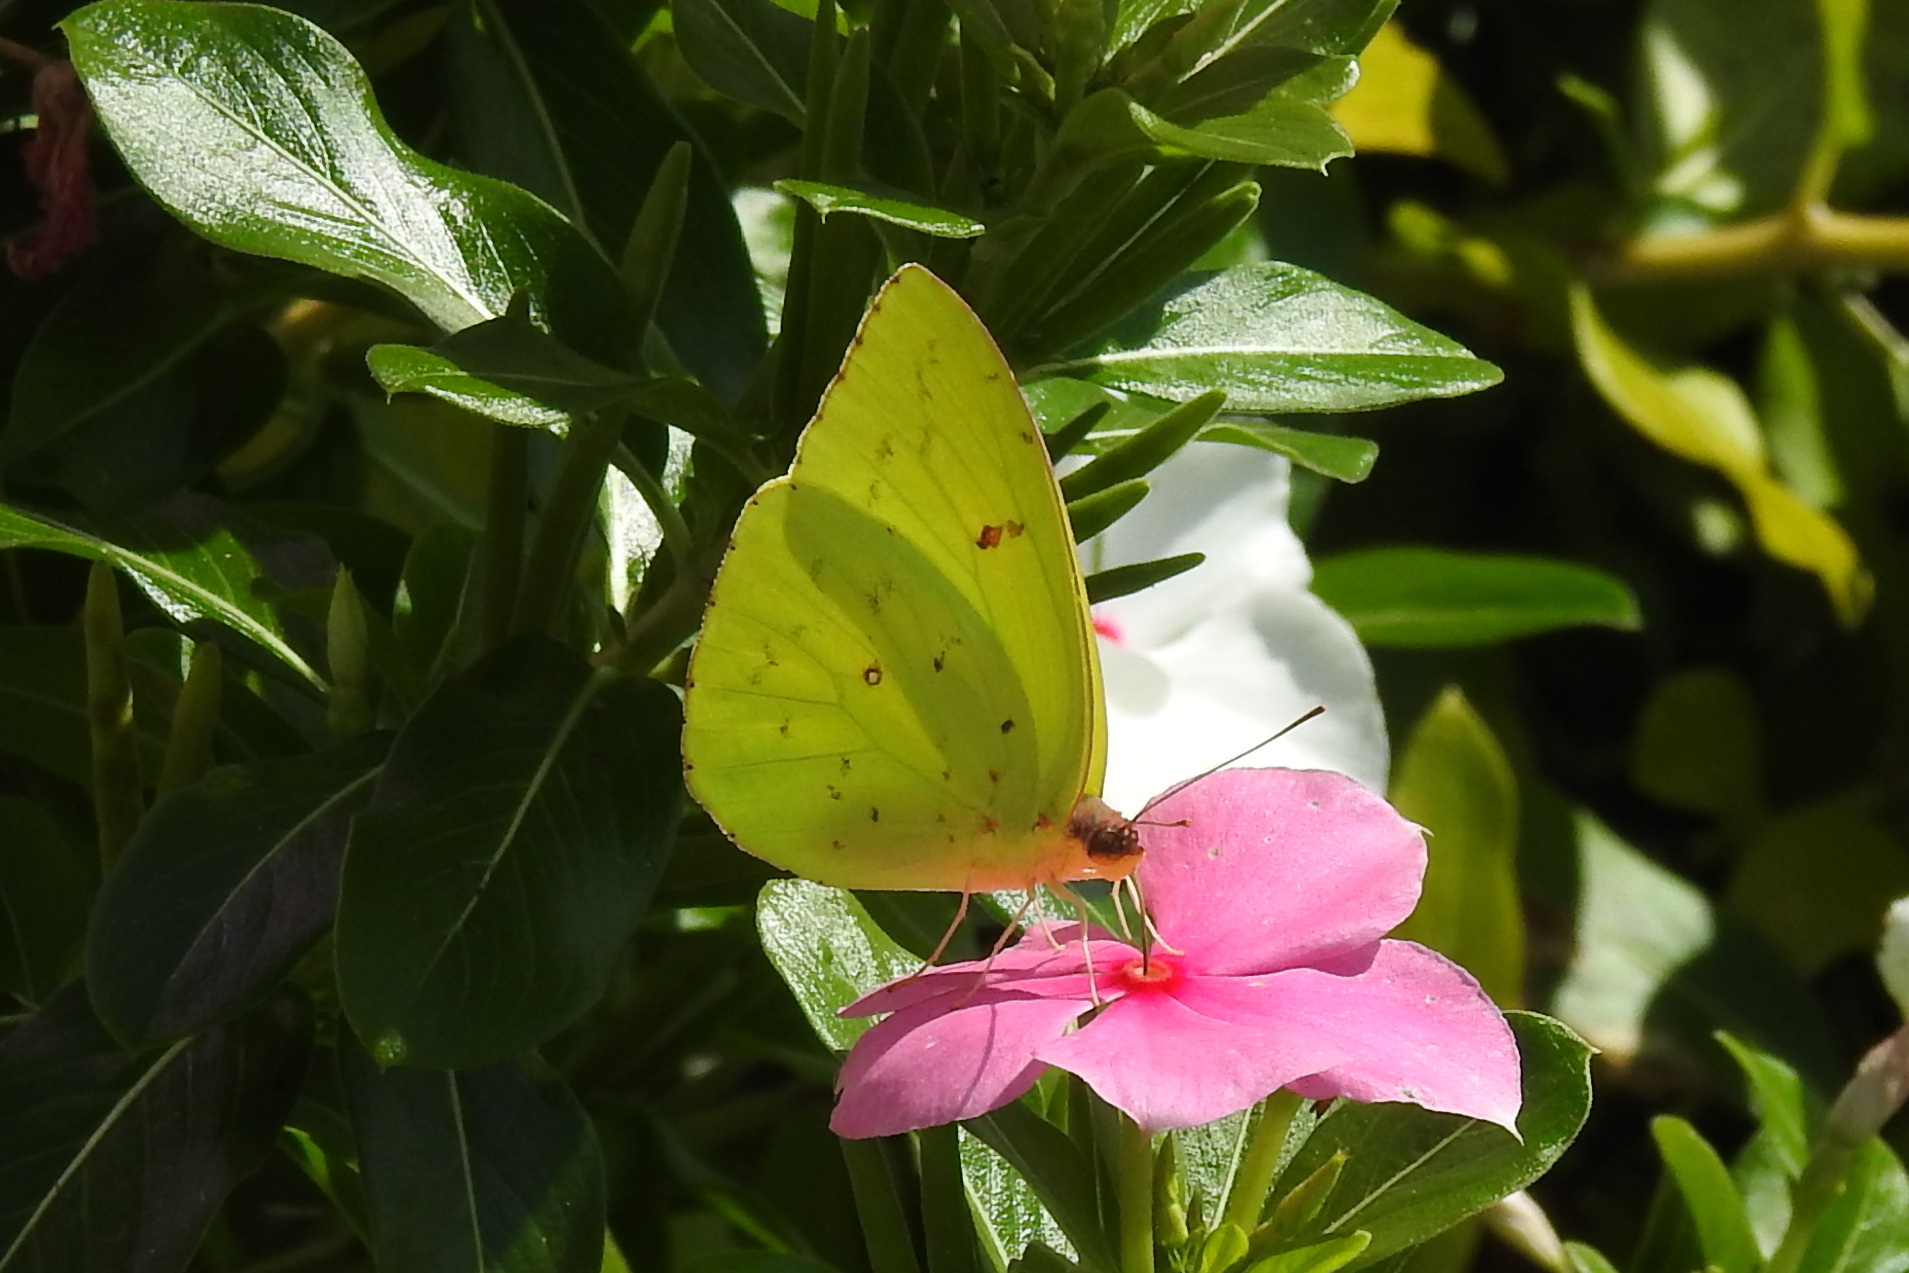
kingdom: Animalia
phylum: Arthropoda
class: Insecta
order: Lepidoptera
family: Pieridae
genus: Phoebis
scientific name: Phoebis sennae
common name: Cloudless sulphur
